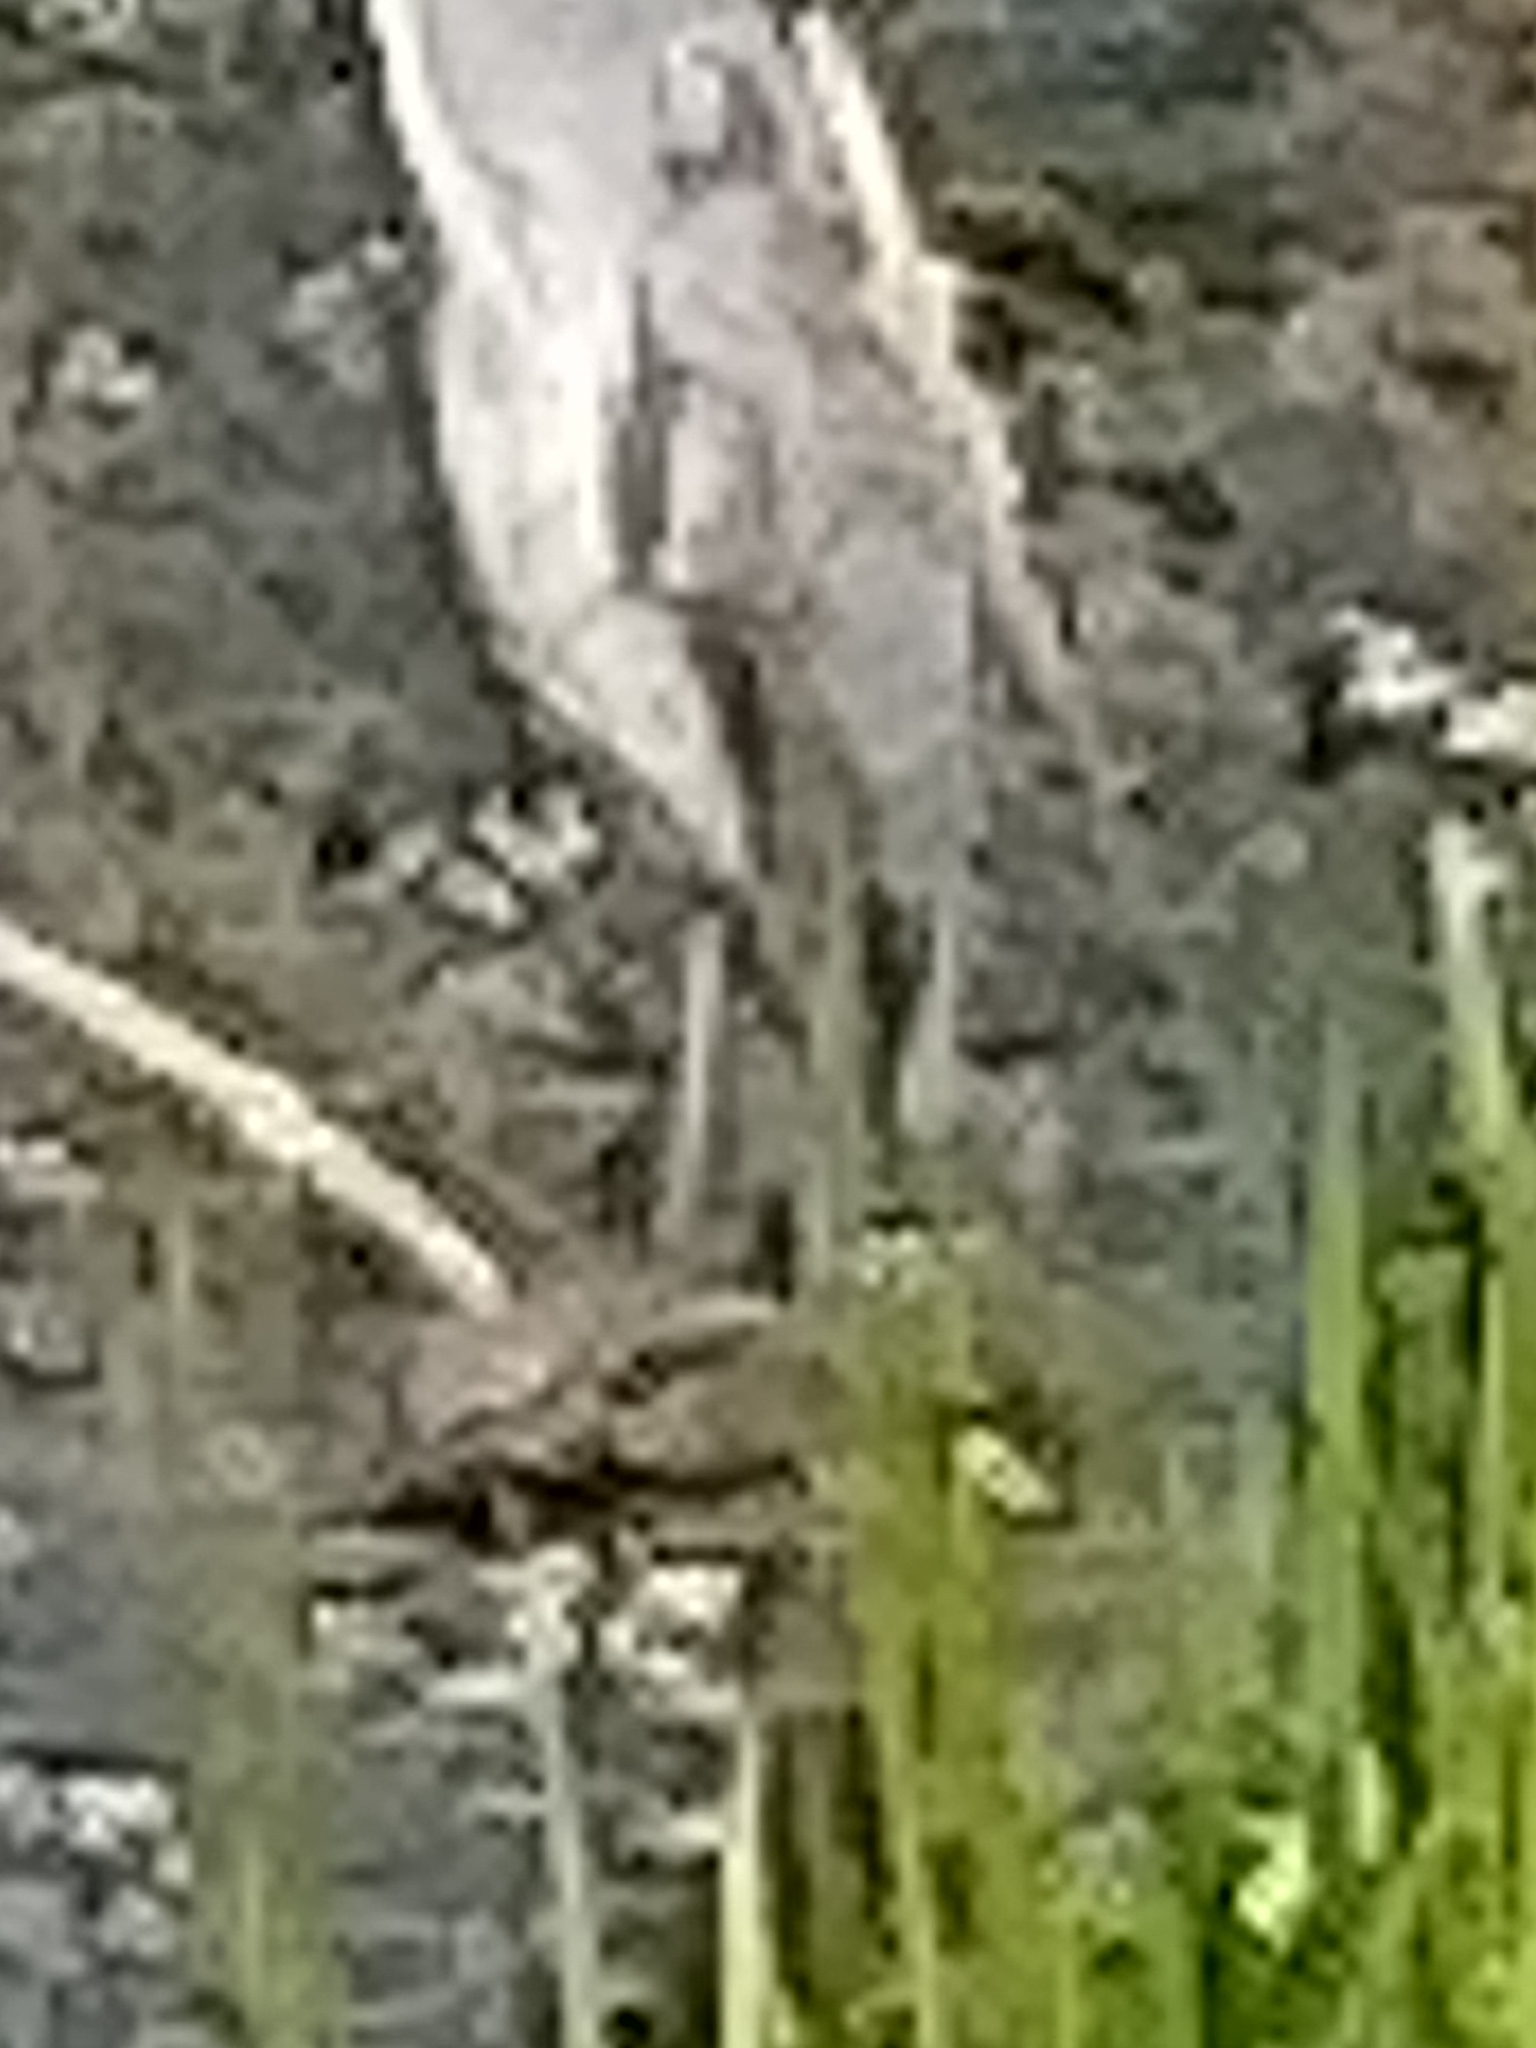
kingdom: Animalia
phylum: Chordata
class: Aves
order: Pelecaniformes
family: Ardeidae
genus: Ardea
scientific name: Ardea cinerea
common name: Grey heron
